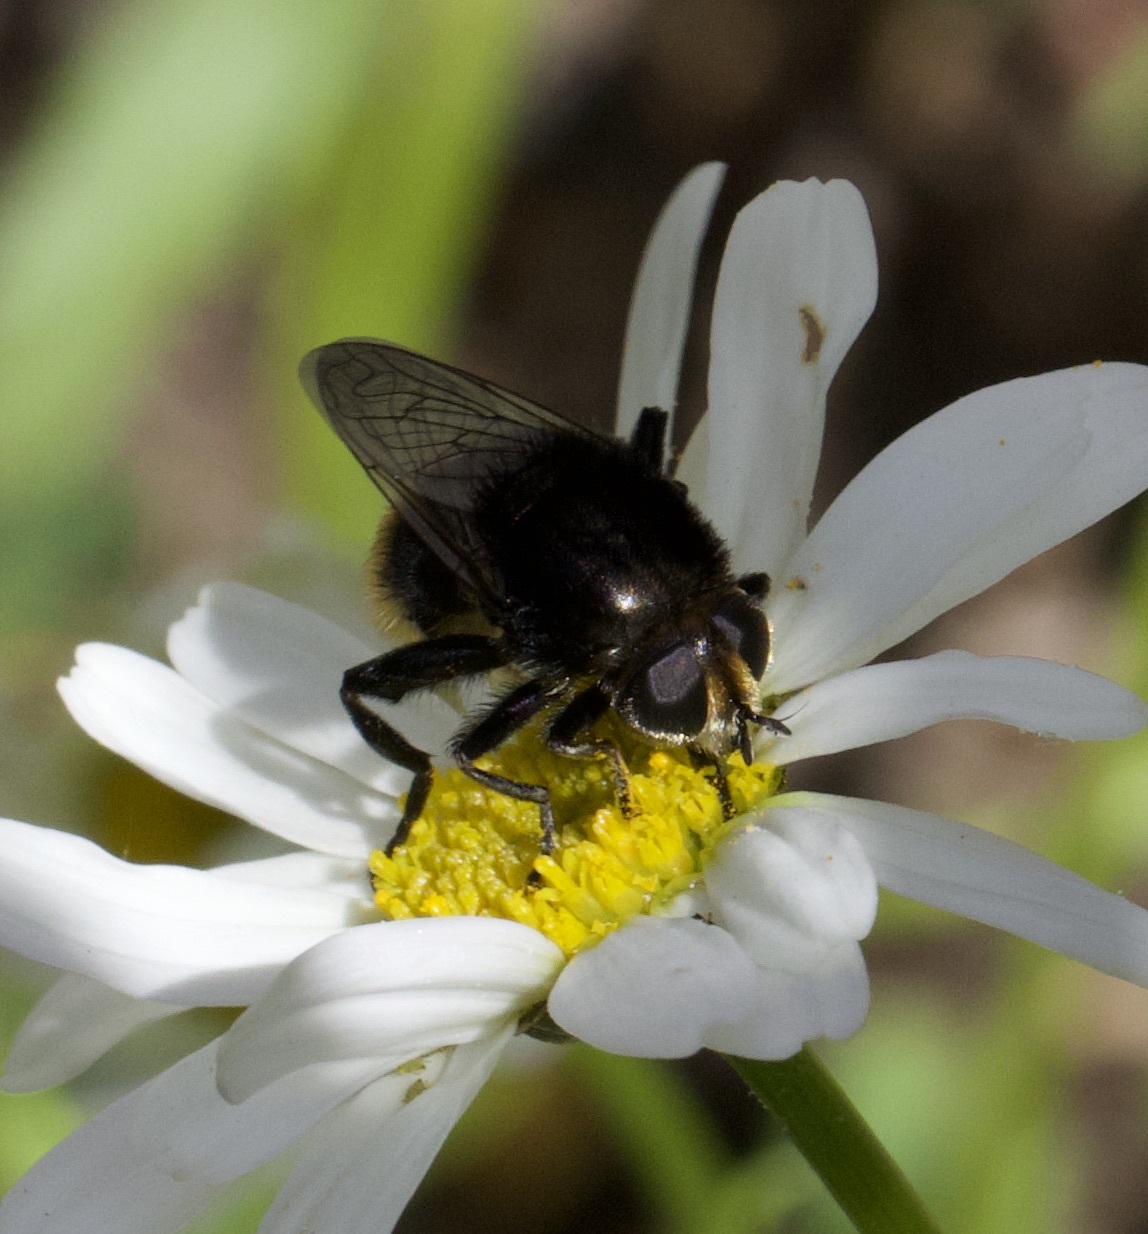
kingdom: Animalia
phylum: Arthropoda
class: Insecta
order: Diptera
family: Syrphidae
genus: Merodon
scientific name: Merodon equestris
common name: Greater bulb-fly
